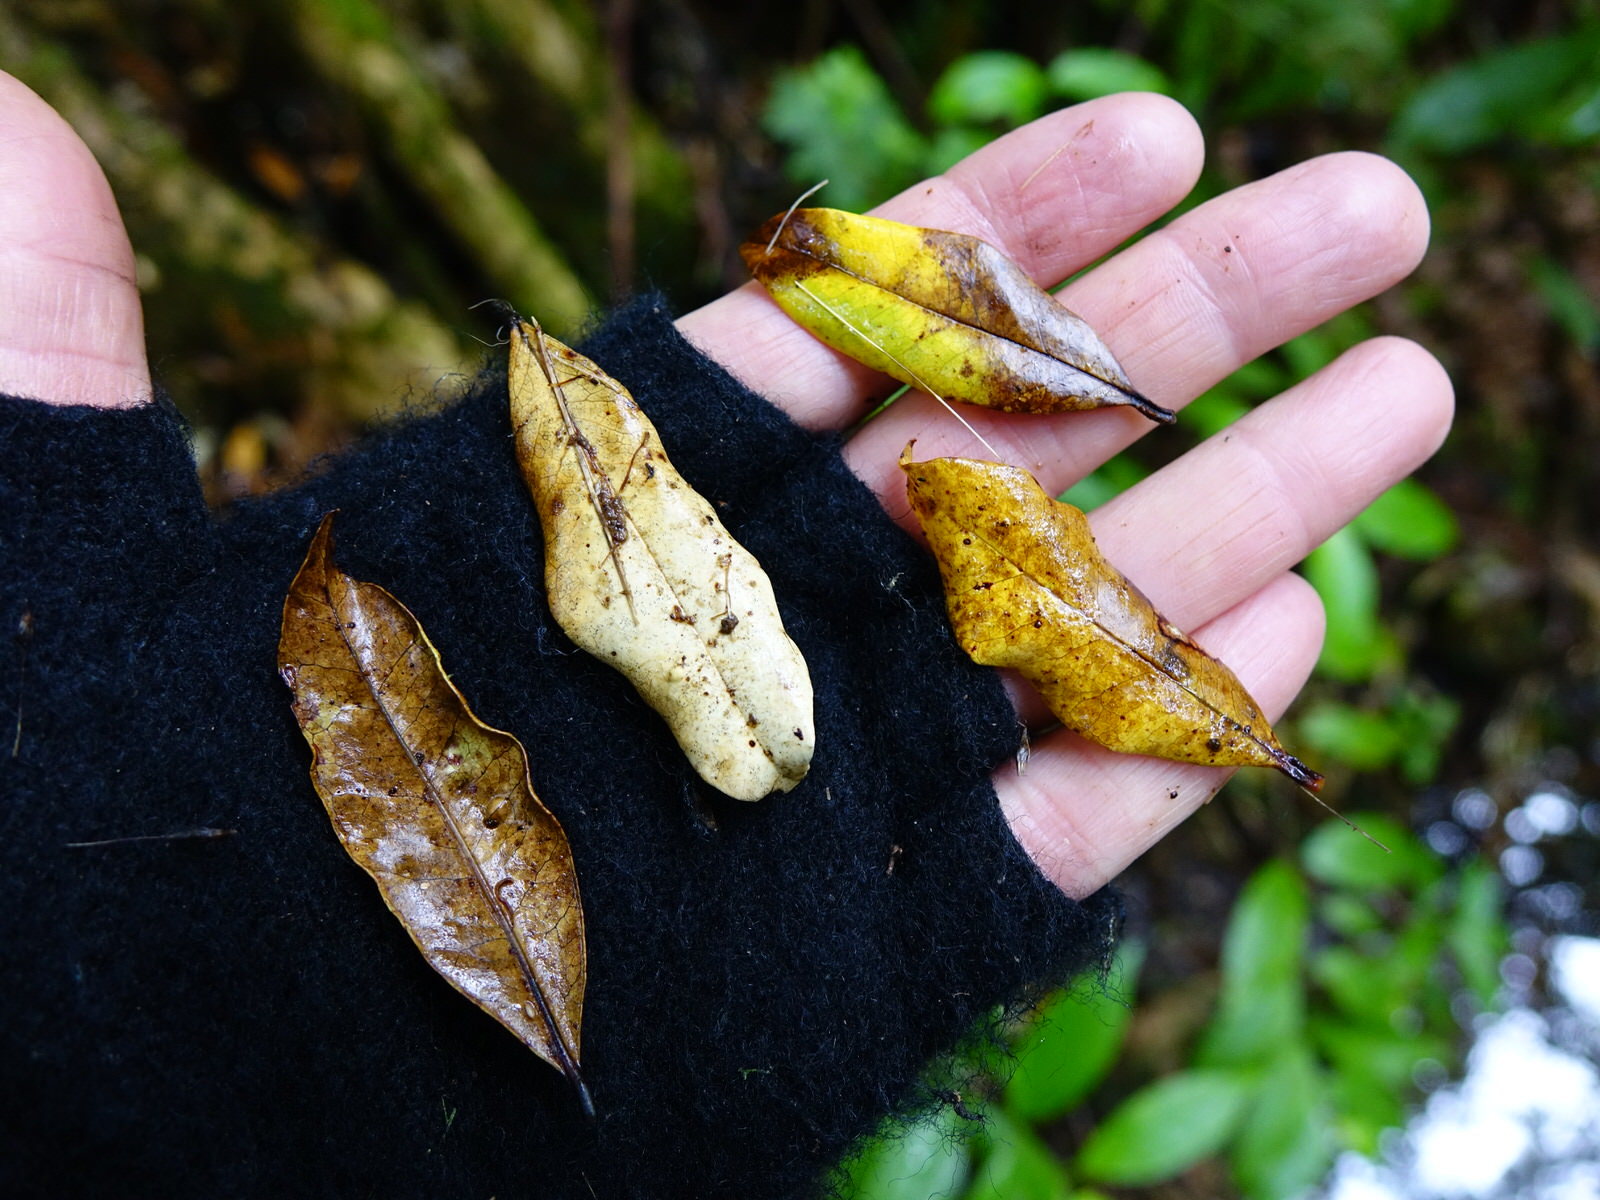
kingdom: Plantae
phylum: Tracheophyta
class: Magnoliopsida
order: Myrtales
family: Myrtaceae
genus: Syzygium
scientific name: Syzygium maire
